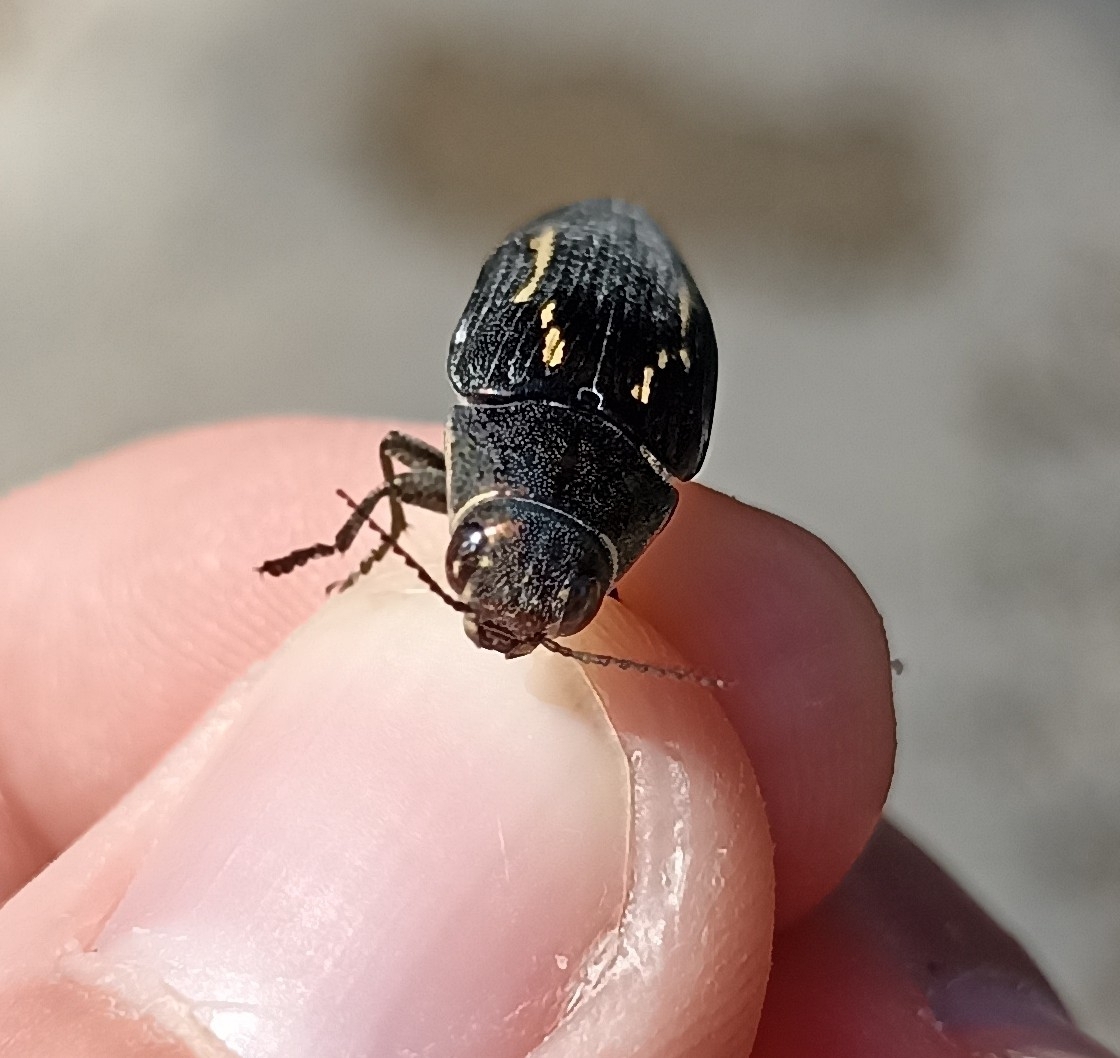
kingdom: Animalia
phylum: Arthropoda
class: Insecta
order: Coleoptera
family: Buprestidae
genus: Buprestis
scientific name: Buprestis dalmatina
